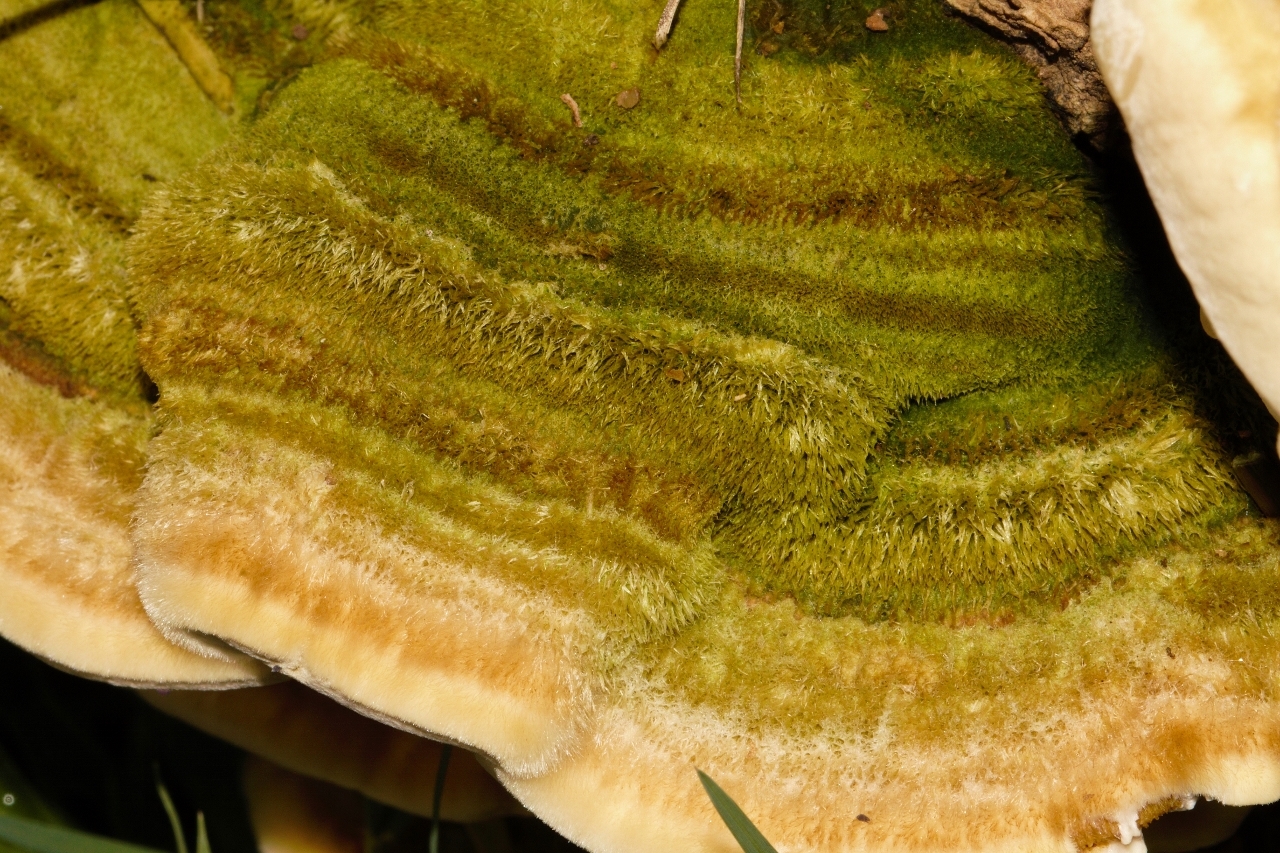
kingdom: Fungi
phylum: Basidiomycota
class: Agaricomycetes
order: Polyporales
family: Polyporaceae
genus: Trametes
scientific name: Trametes polyzona
